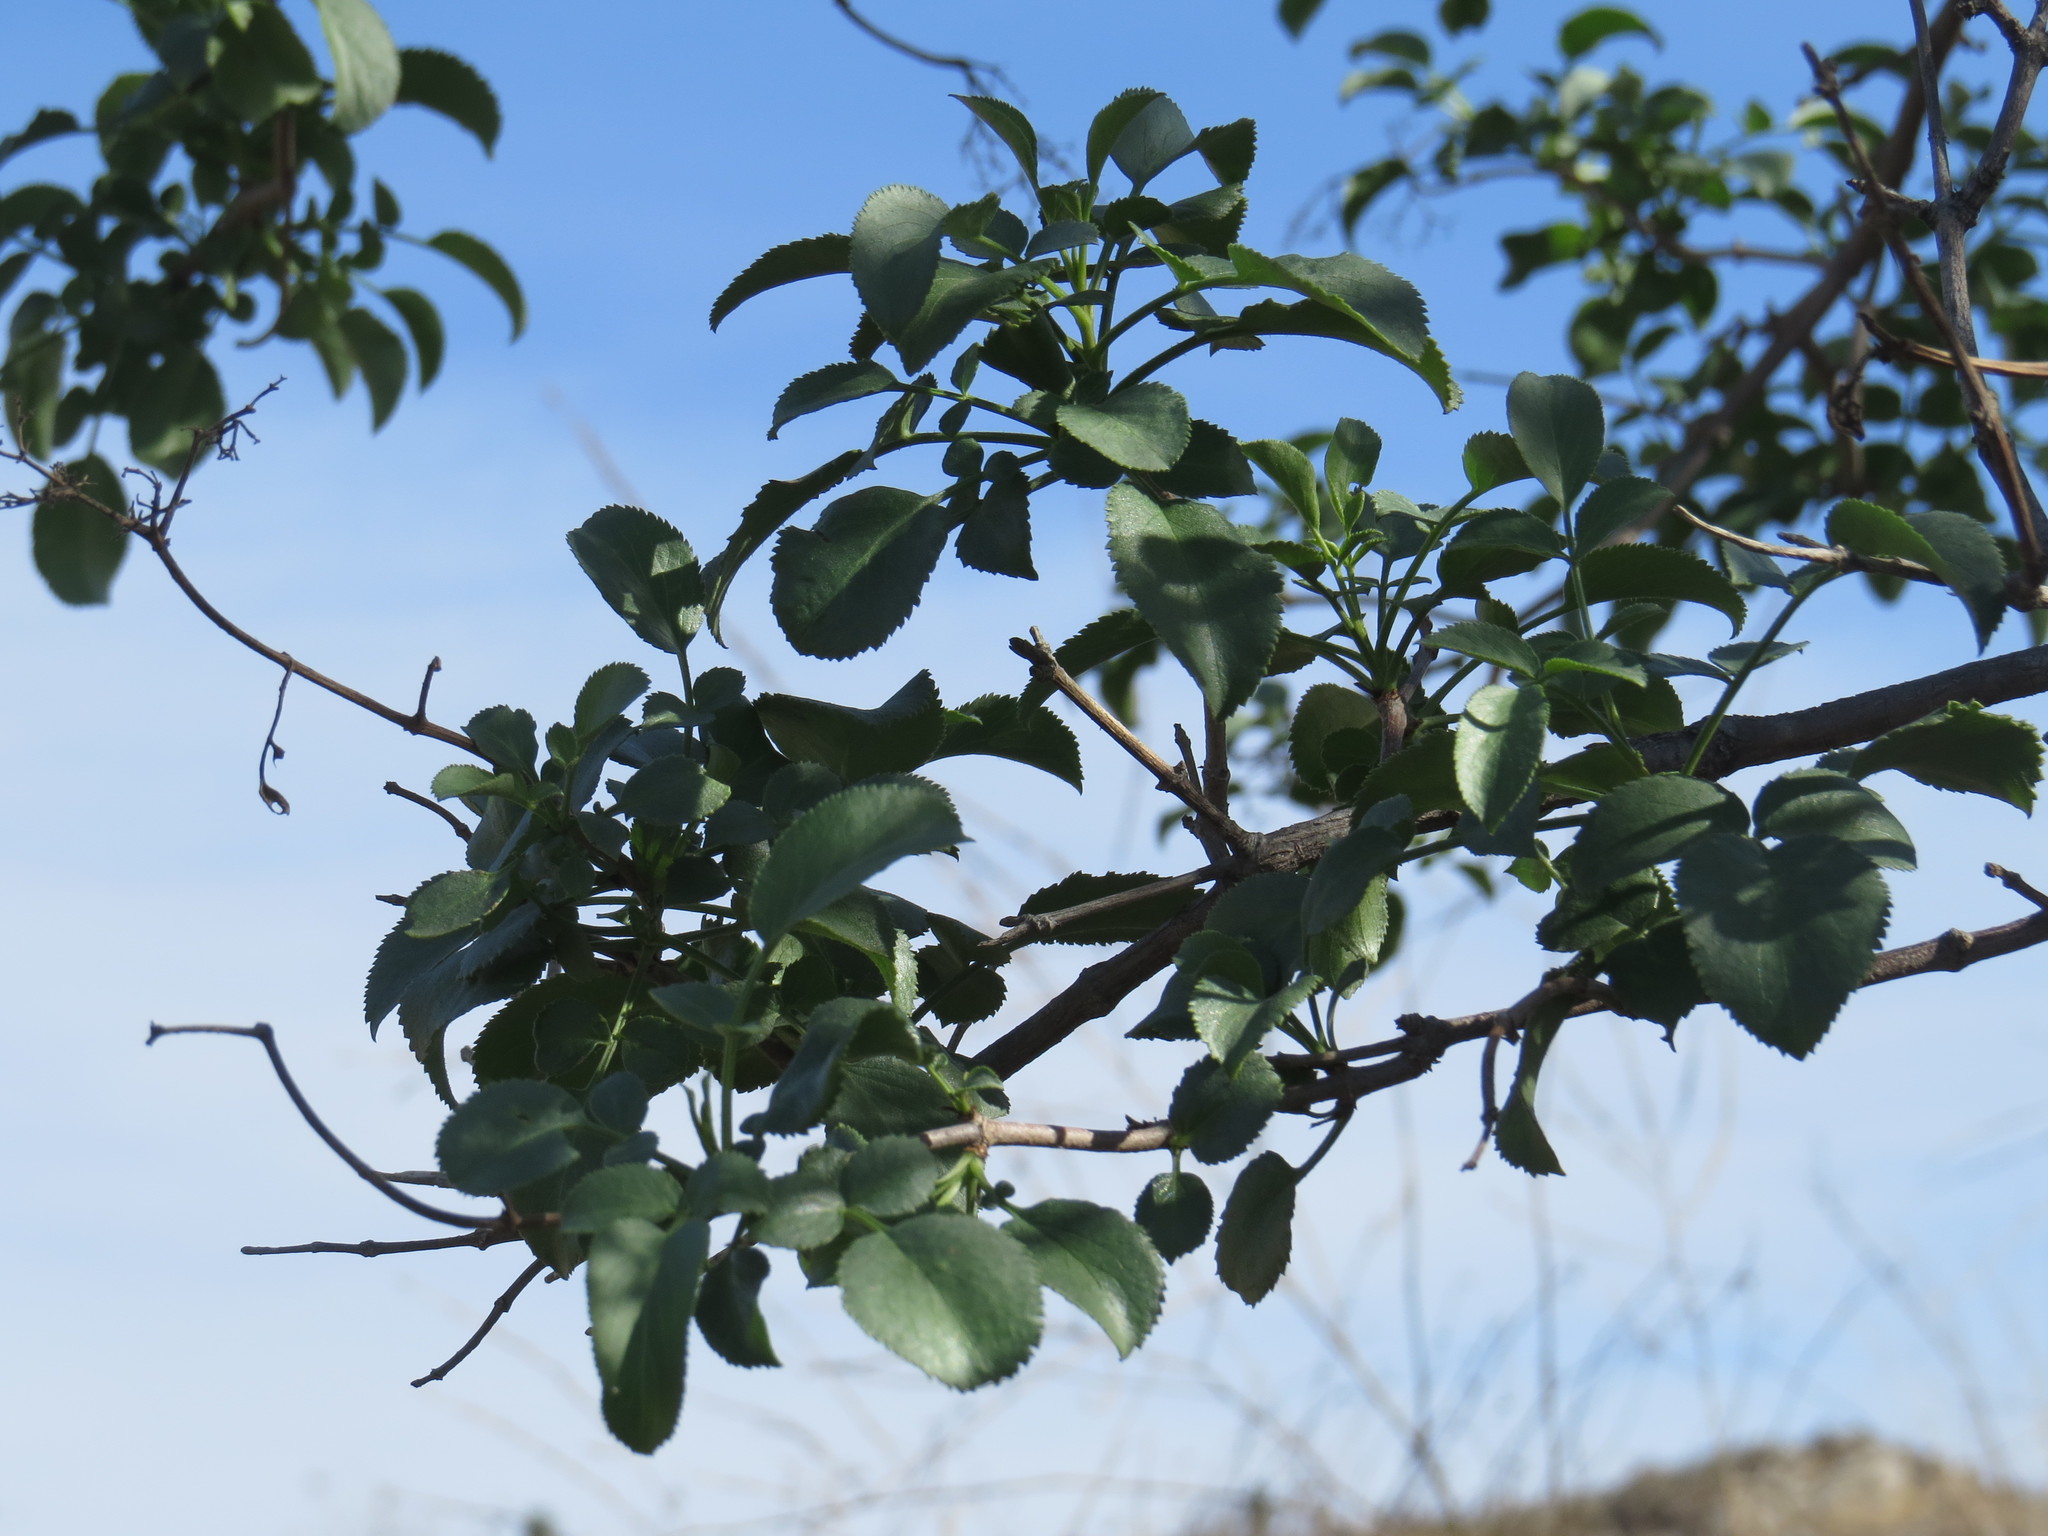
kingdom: Plantae
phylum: Tracheophyta
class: Magnoliopsida
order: Dipsacales
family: Viburnaceae
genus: Sambucus
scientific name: Sambucus cerulea
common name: Blue elder
